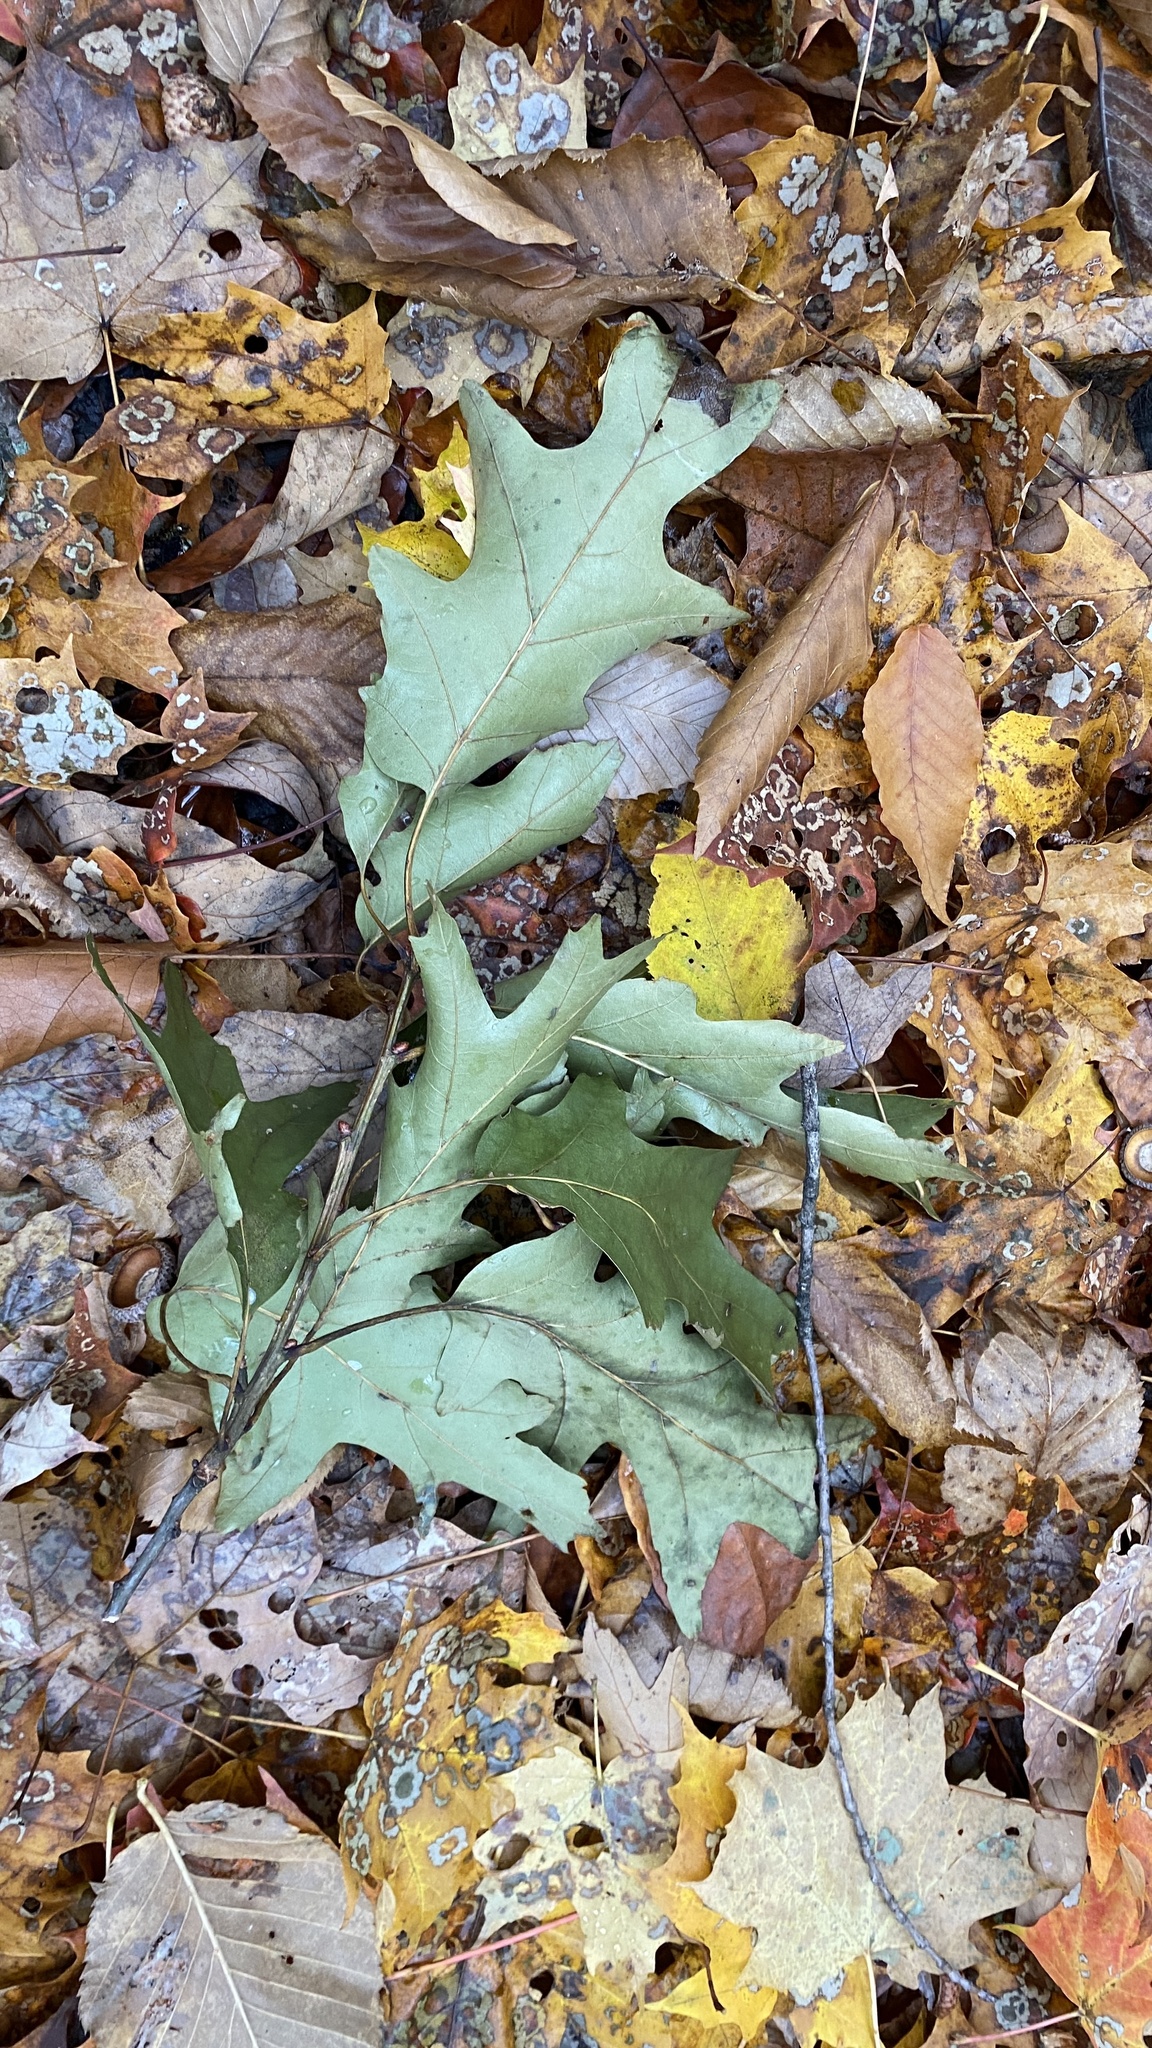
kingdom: Plantae
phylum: Tracheophyta
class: Magnoliopsida
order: Fagales
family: Fagaceae
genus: Quercus
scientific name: Quercus rubra
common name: Red oak
